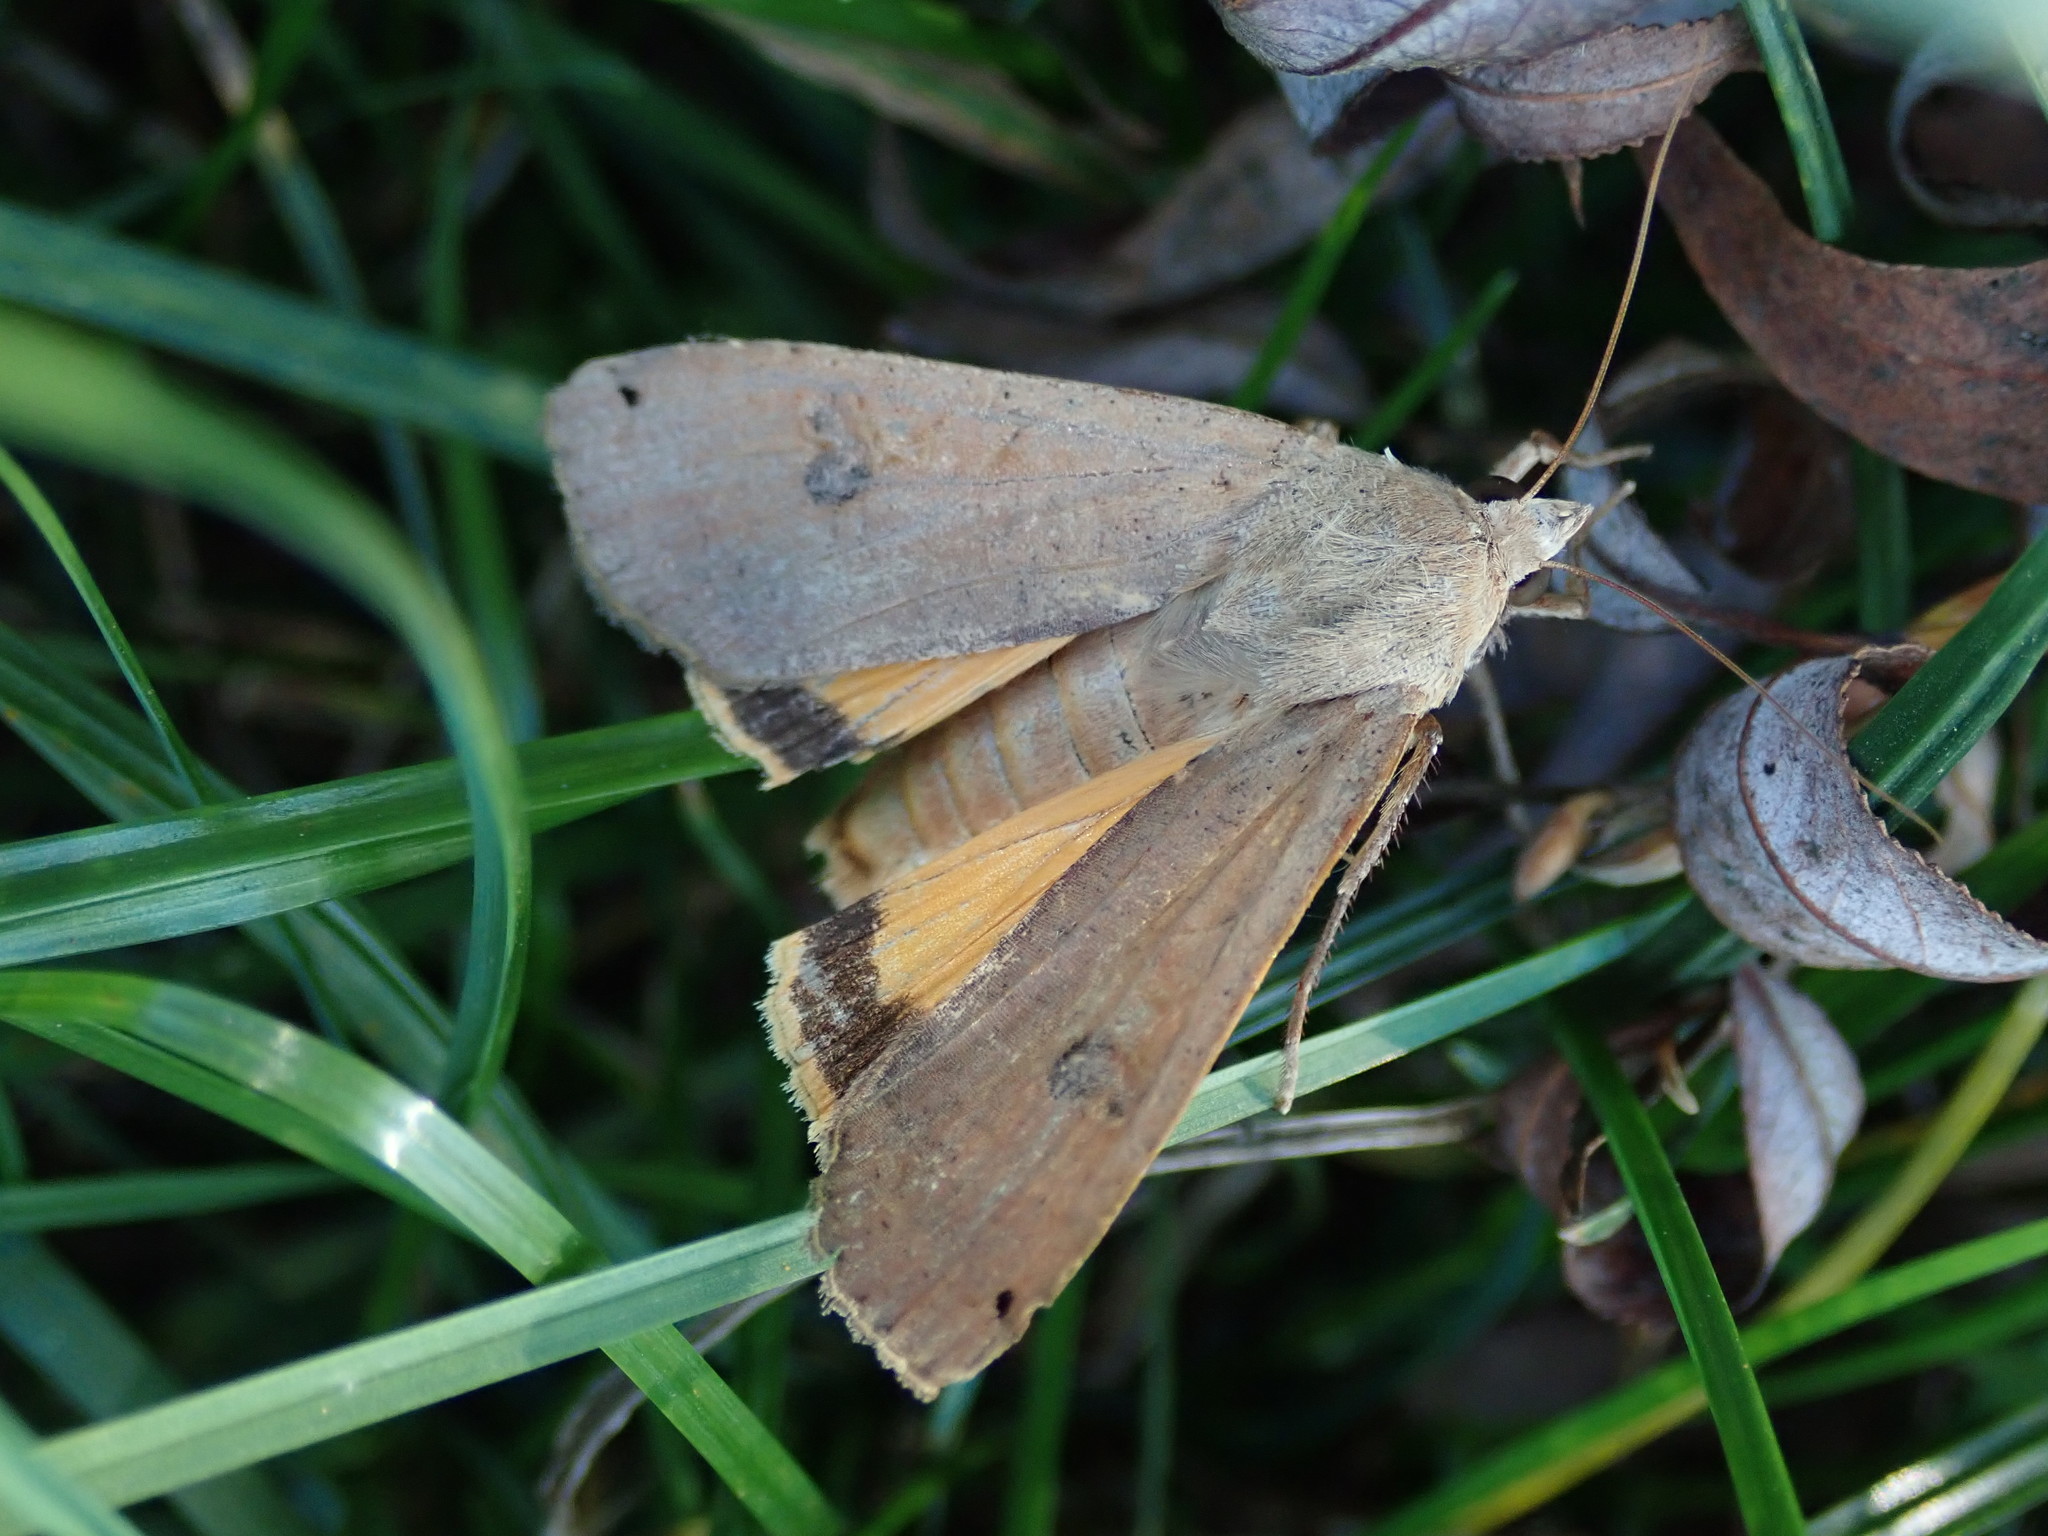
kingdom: Animalia
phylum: Arthropoda
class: Insecta
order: Lepidoptera
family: Noctuidae
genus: Noctua
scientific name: Noctua pronuba
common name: Large yellow underwing
